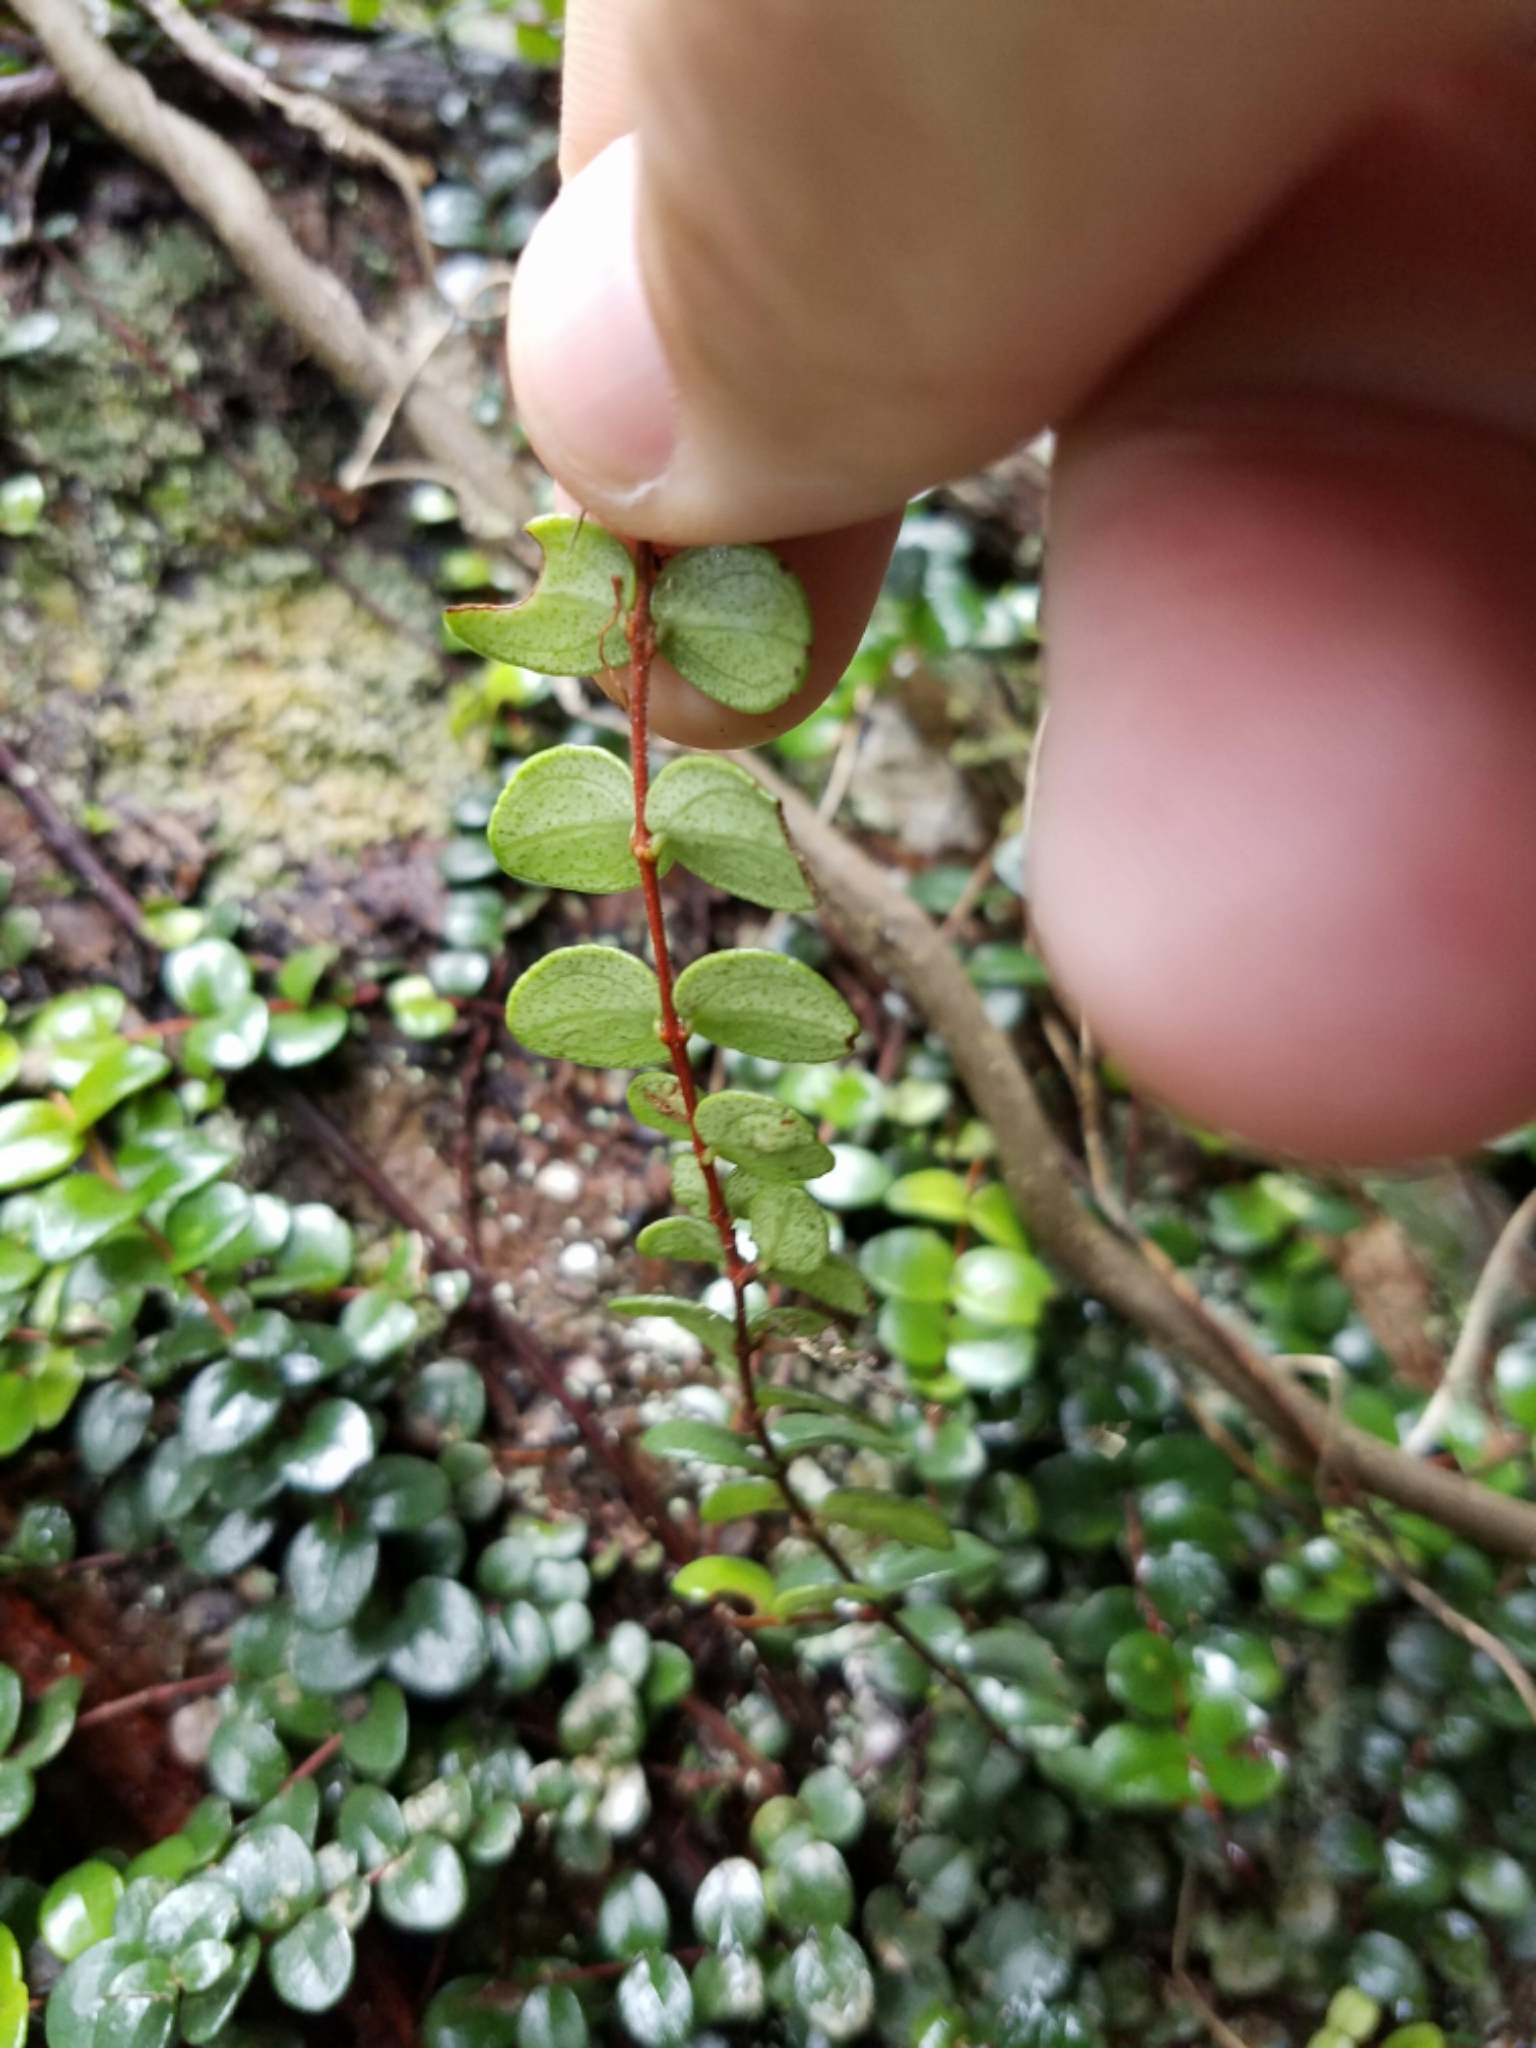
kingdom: Plantae
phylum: Tracheophyta
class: Magnoliopsida
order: Myrtales
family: Myrtaceae
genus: Metrosideros
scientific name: Metrosideros perforata
